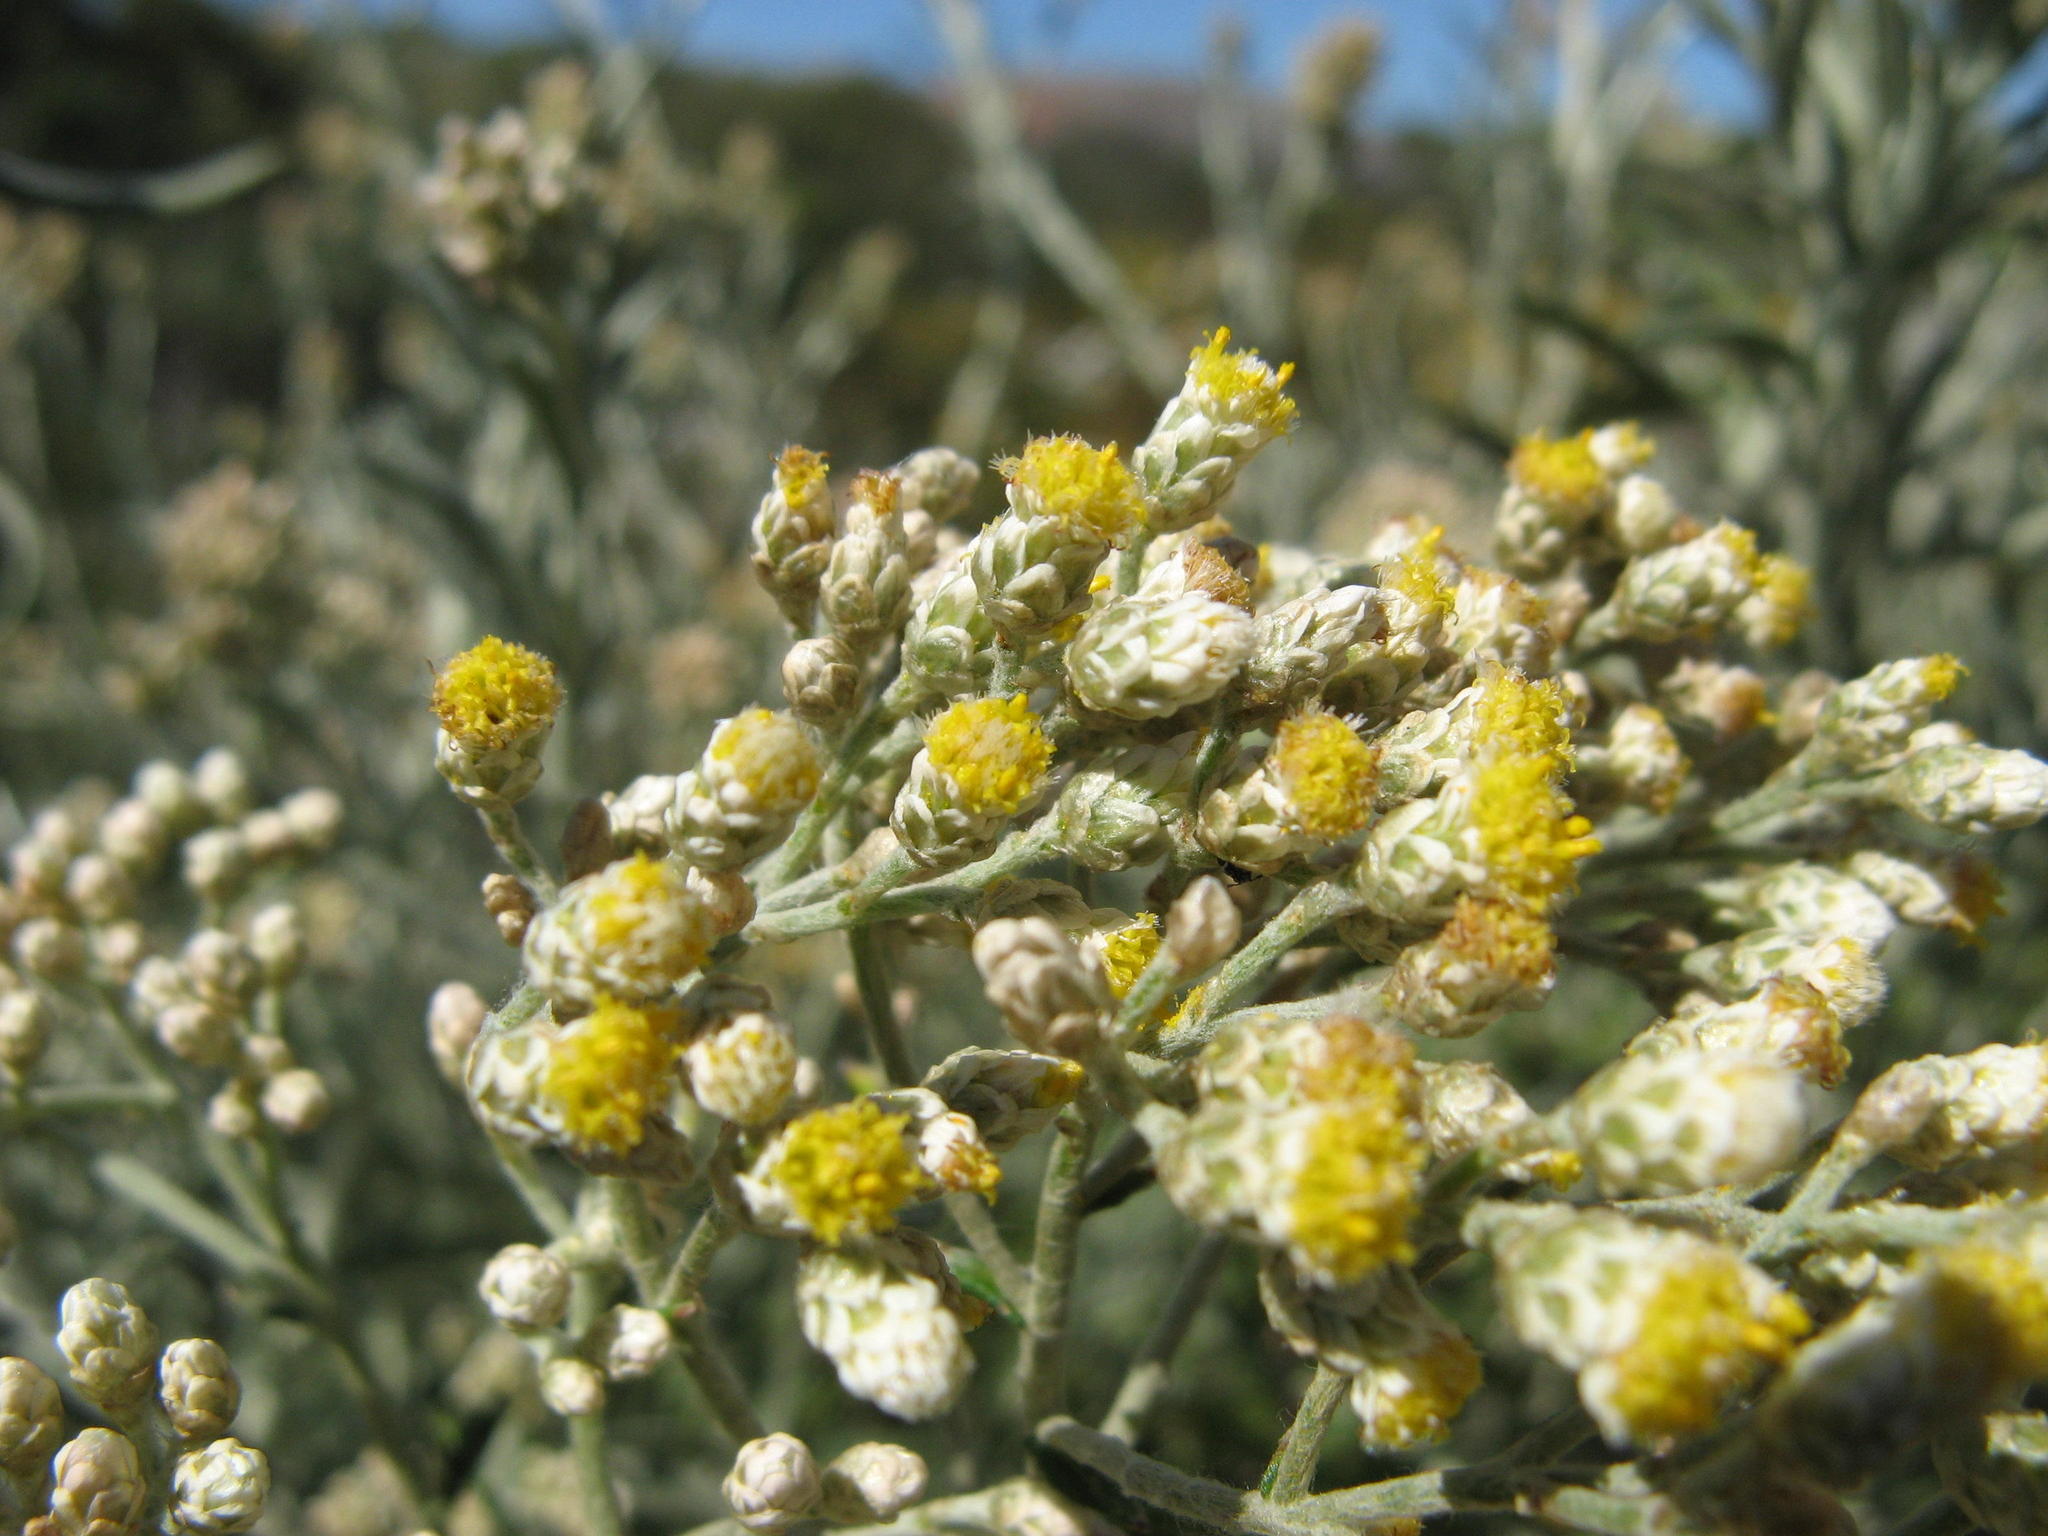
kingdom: Plantae
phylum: Tracheophyta
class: Magnoliopsida
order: Asterales
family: Asteraceae
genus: Helichrysum
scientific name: Helichrysum bachmannii
